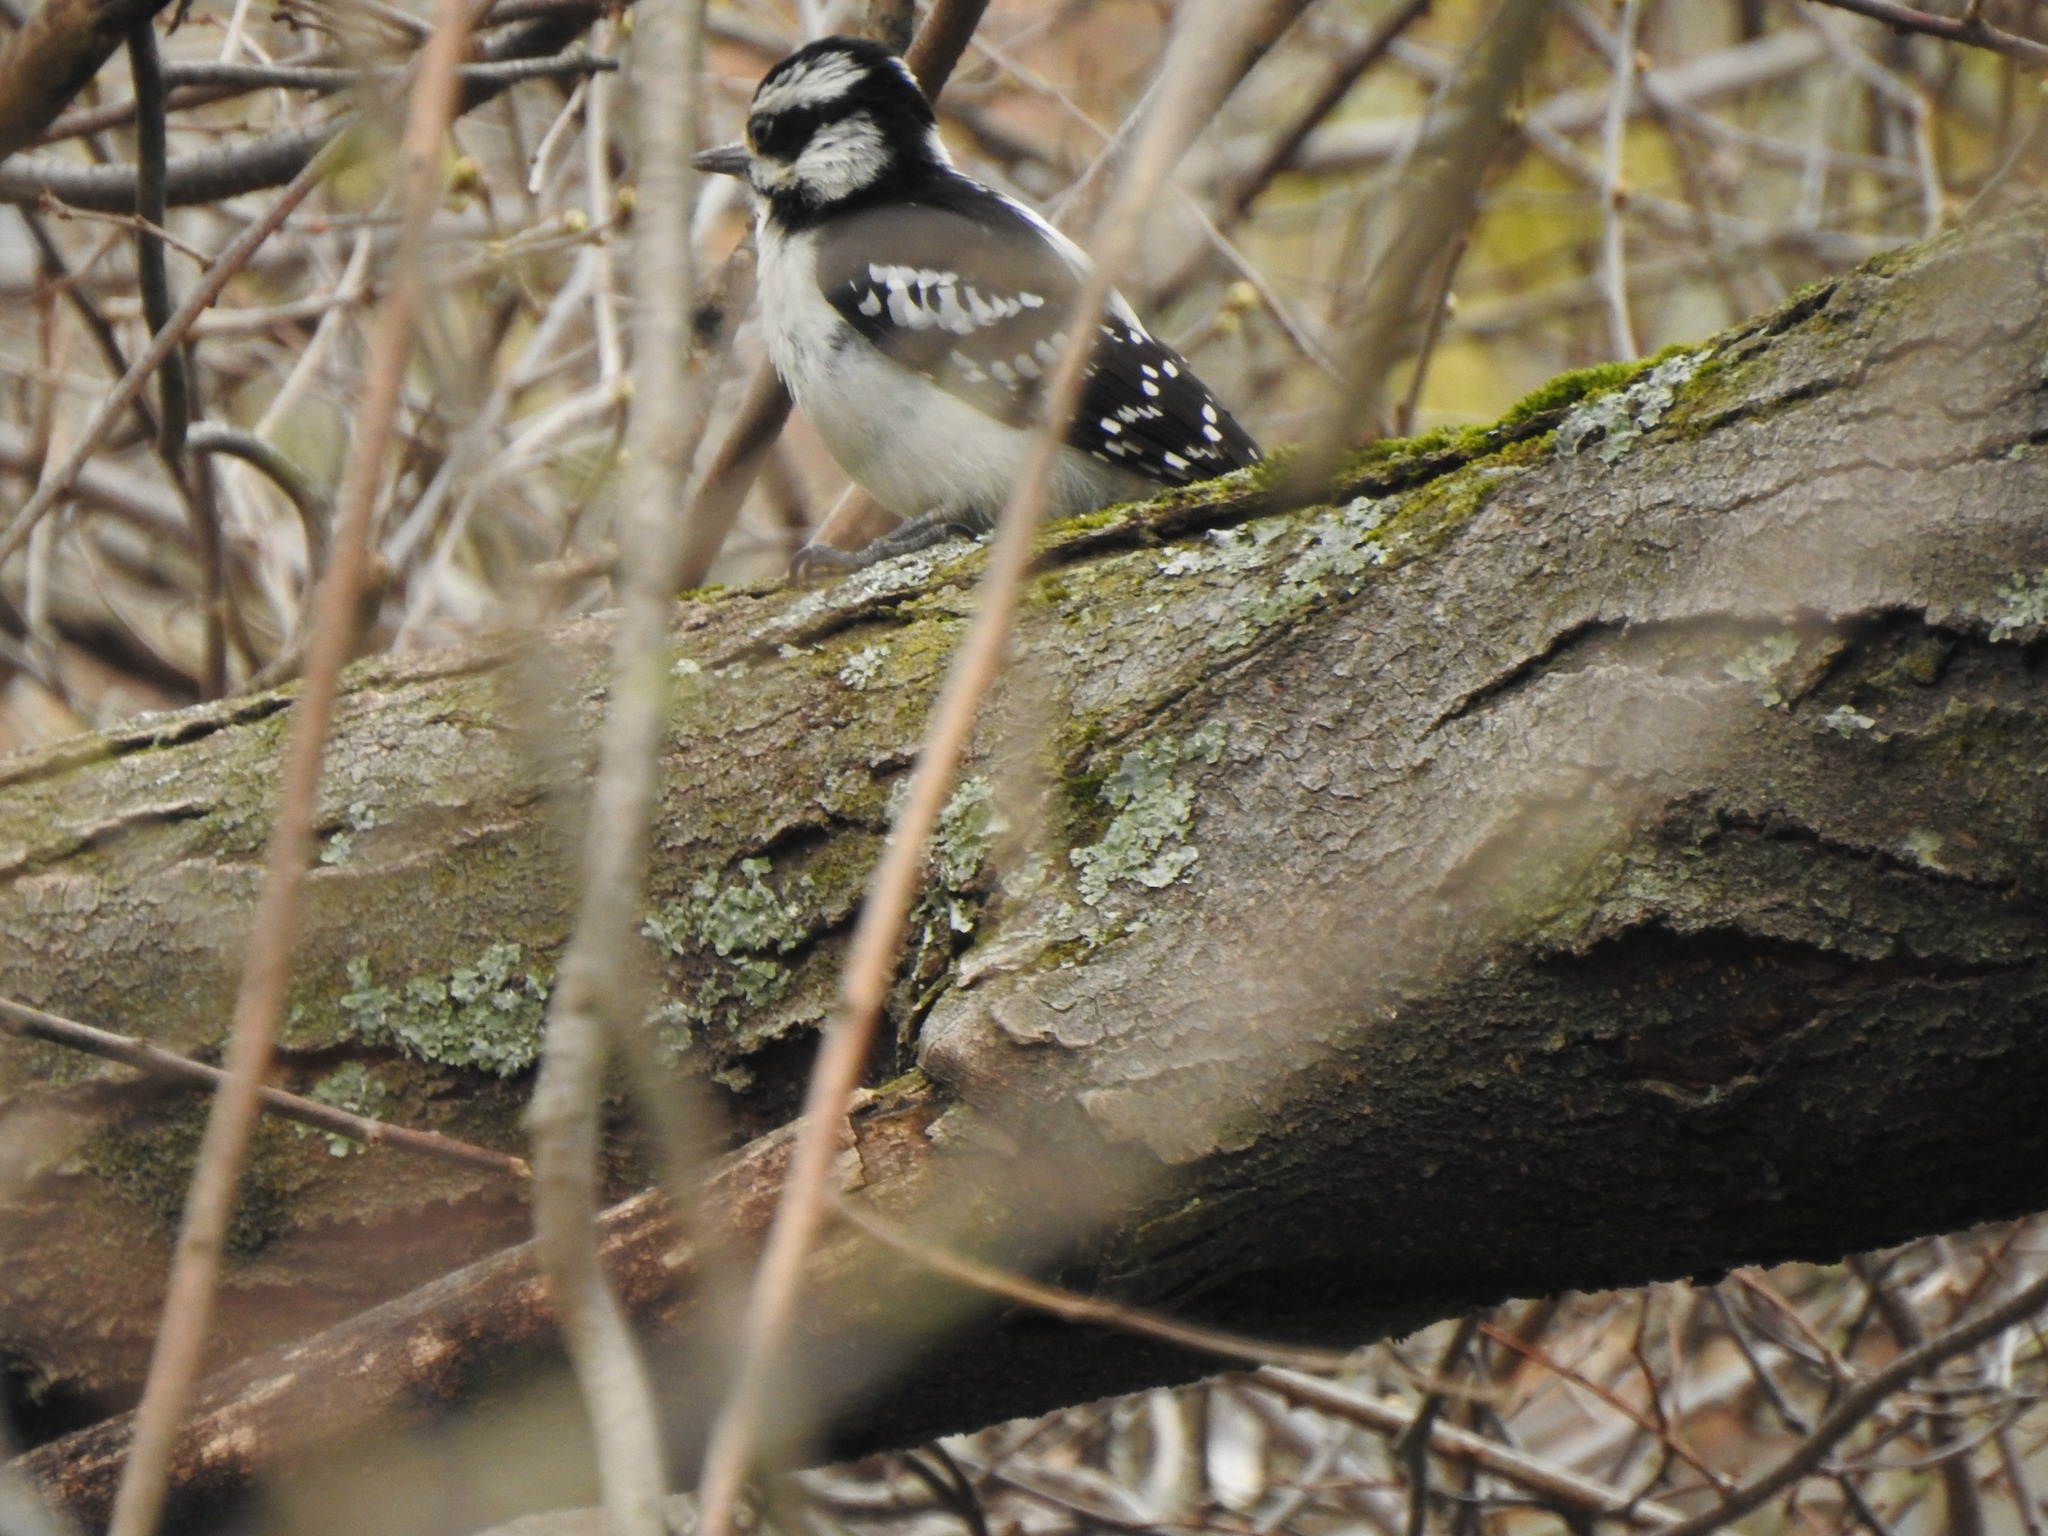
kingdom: Animalia
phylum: Chordata
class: Aves
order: Piciformes
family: Picidae
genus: Dryobates
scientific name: Dryobates pubescens
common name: Downy woodpecker
